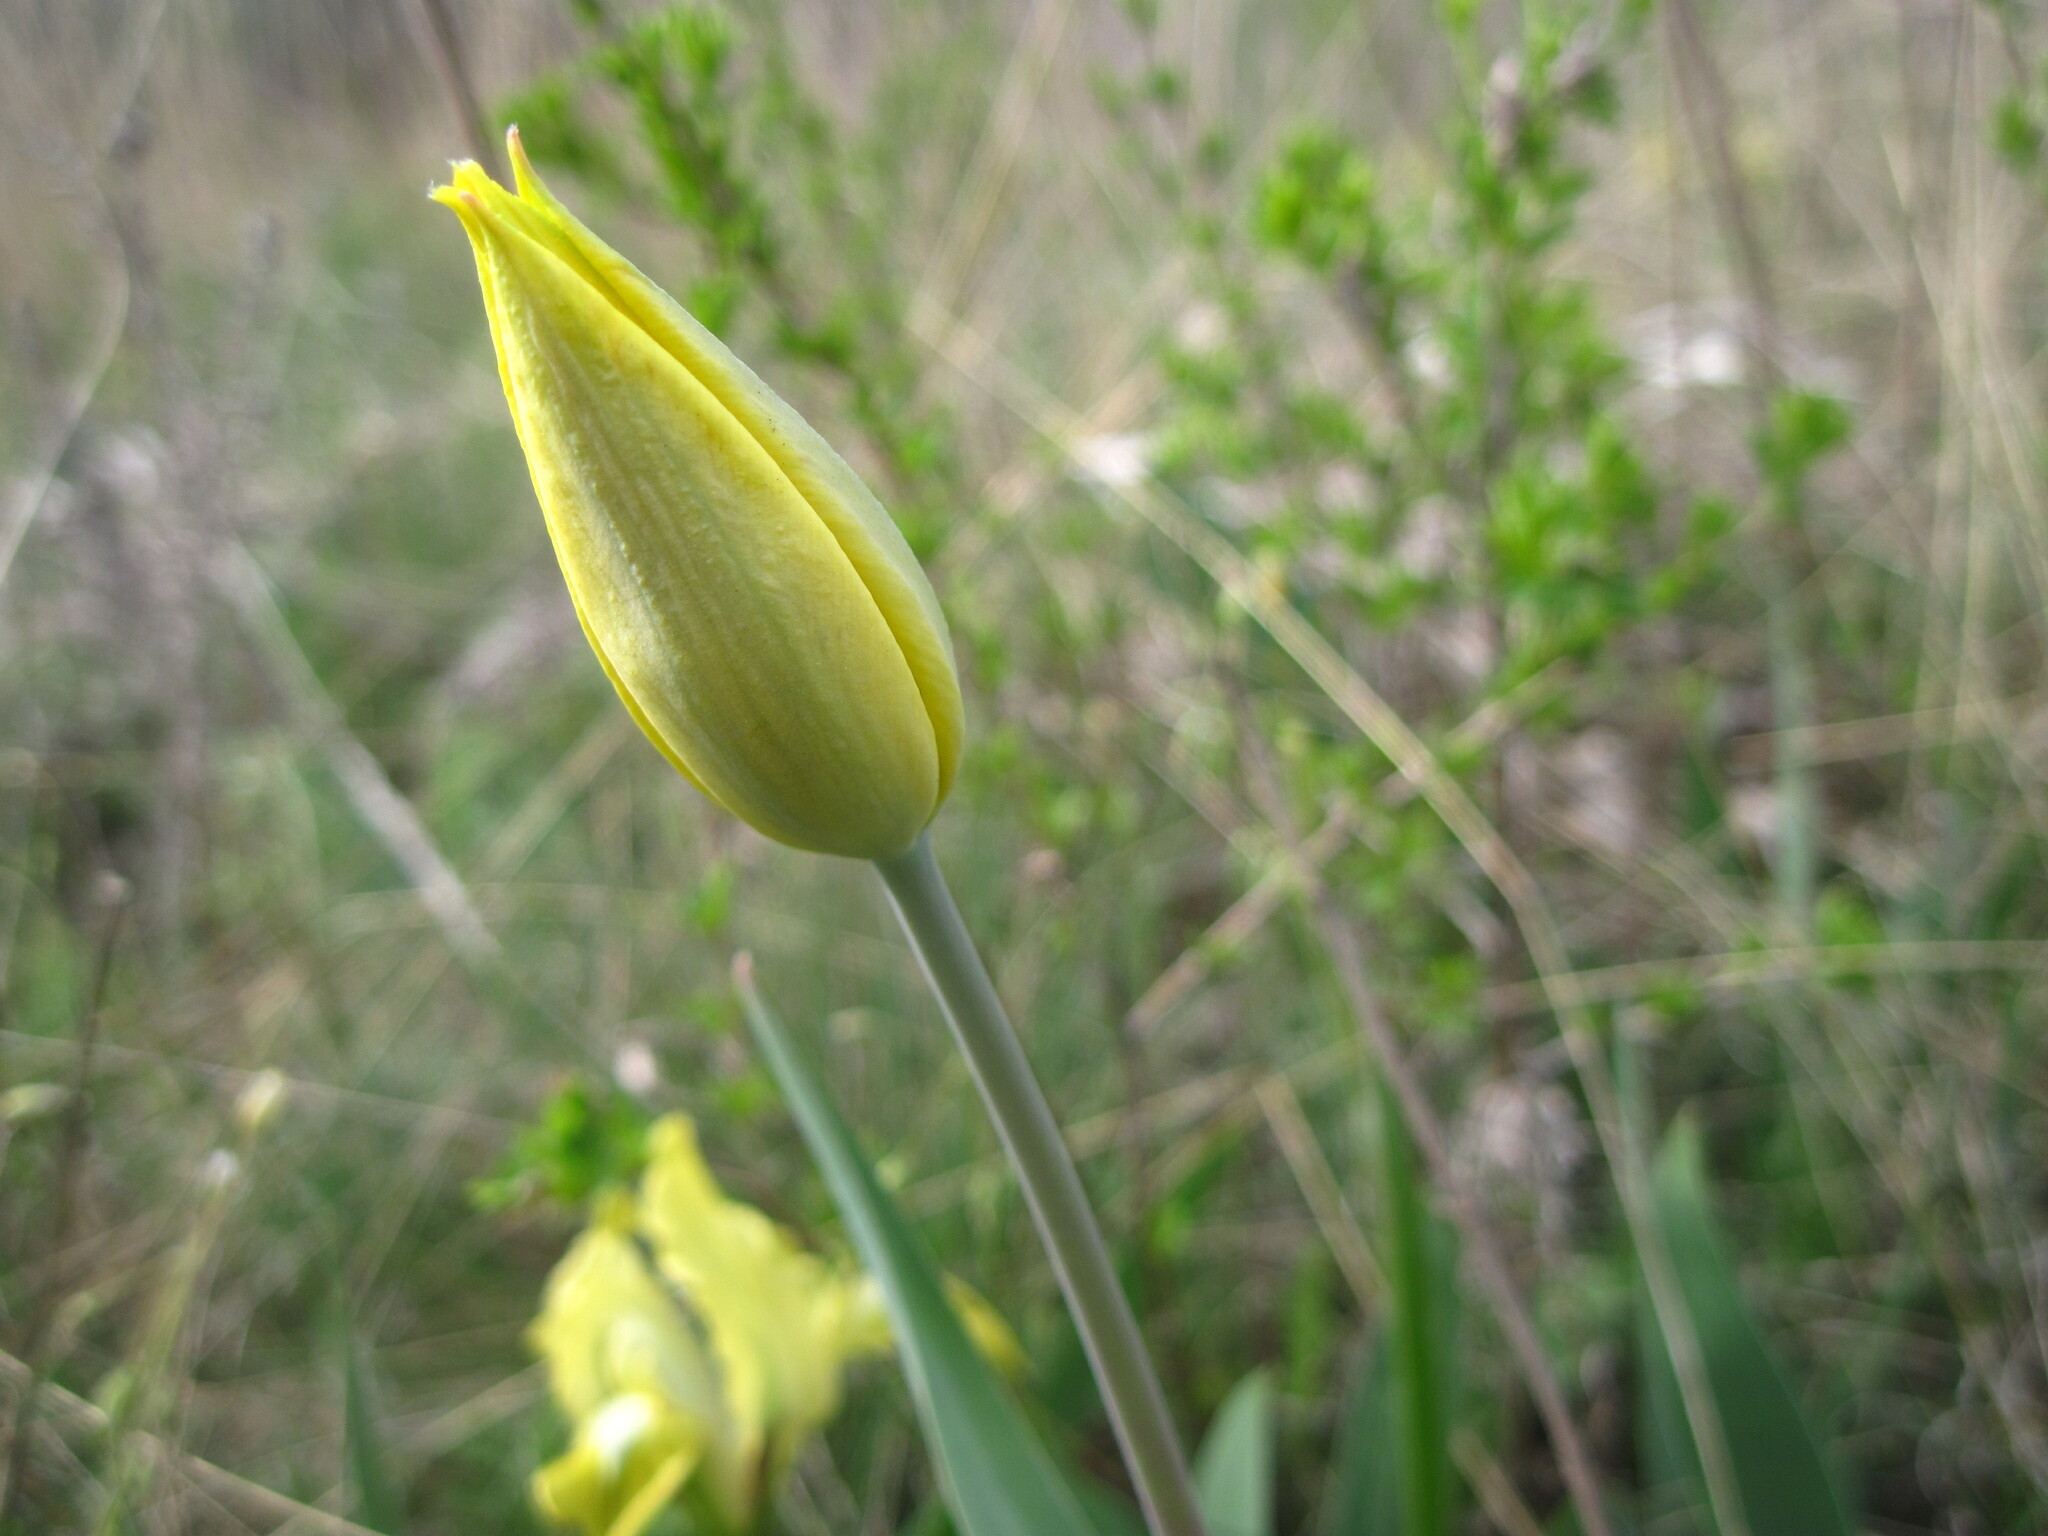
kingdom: Plantae
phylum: Tracheophyta
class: Liliopsida
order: Liliales
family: Liliaceae
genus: Tulipa
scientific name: Tulipa suaveolens
